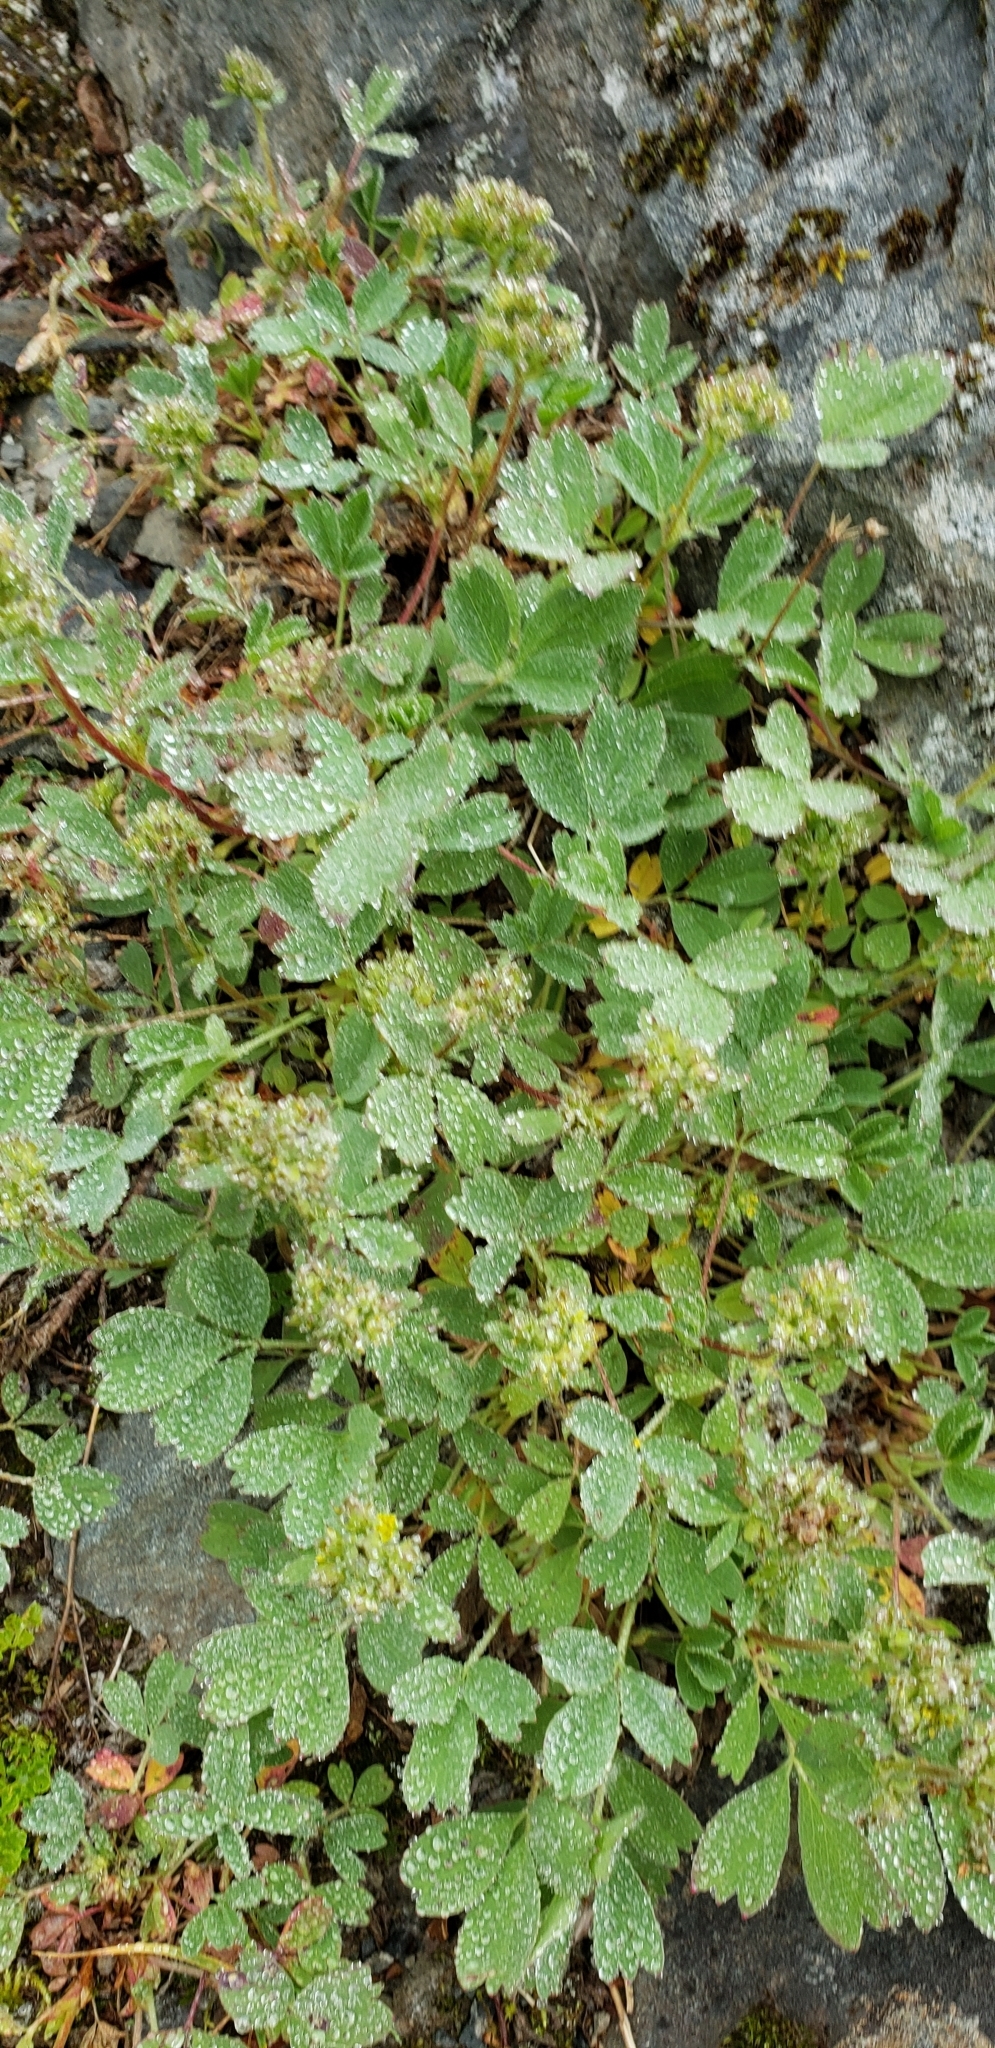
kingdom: Plantae
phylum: Tracheophyta
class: Magnoliopsida
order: Rosales
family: Rosaceae
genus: Sibbaldia
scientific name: Sibbaldia procumbens
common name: Creeping sibbaldia
